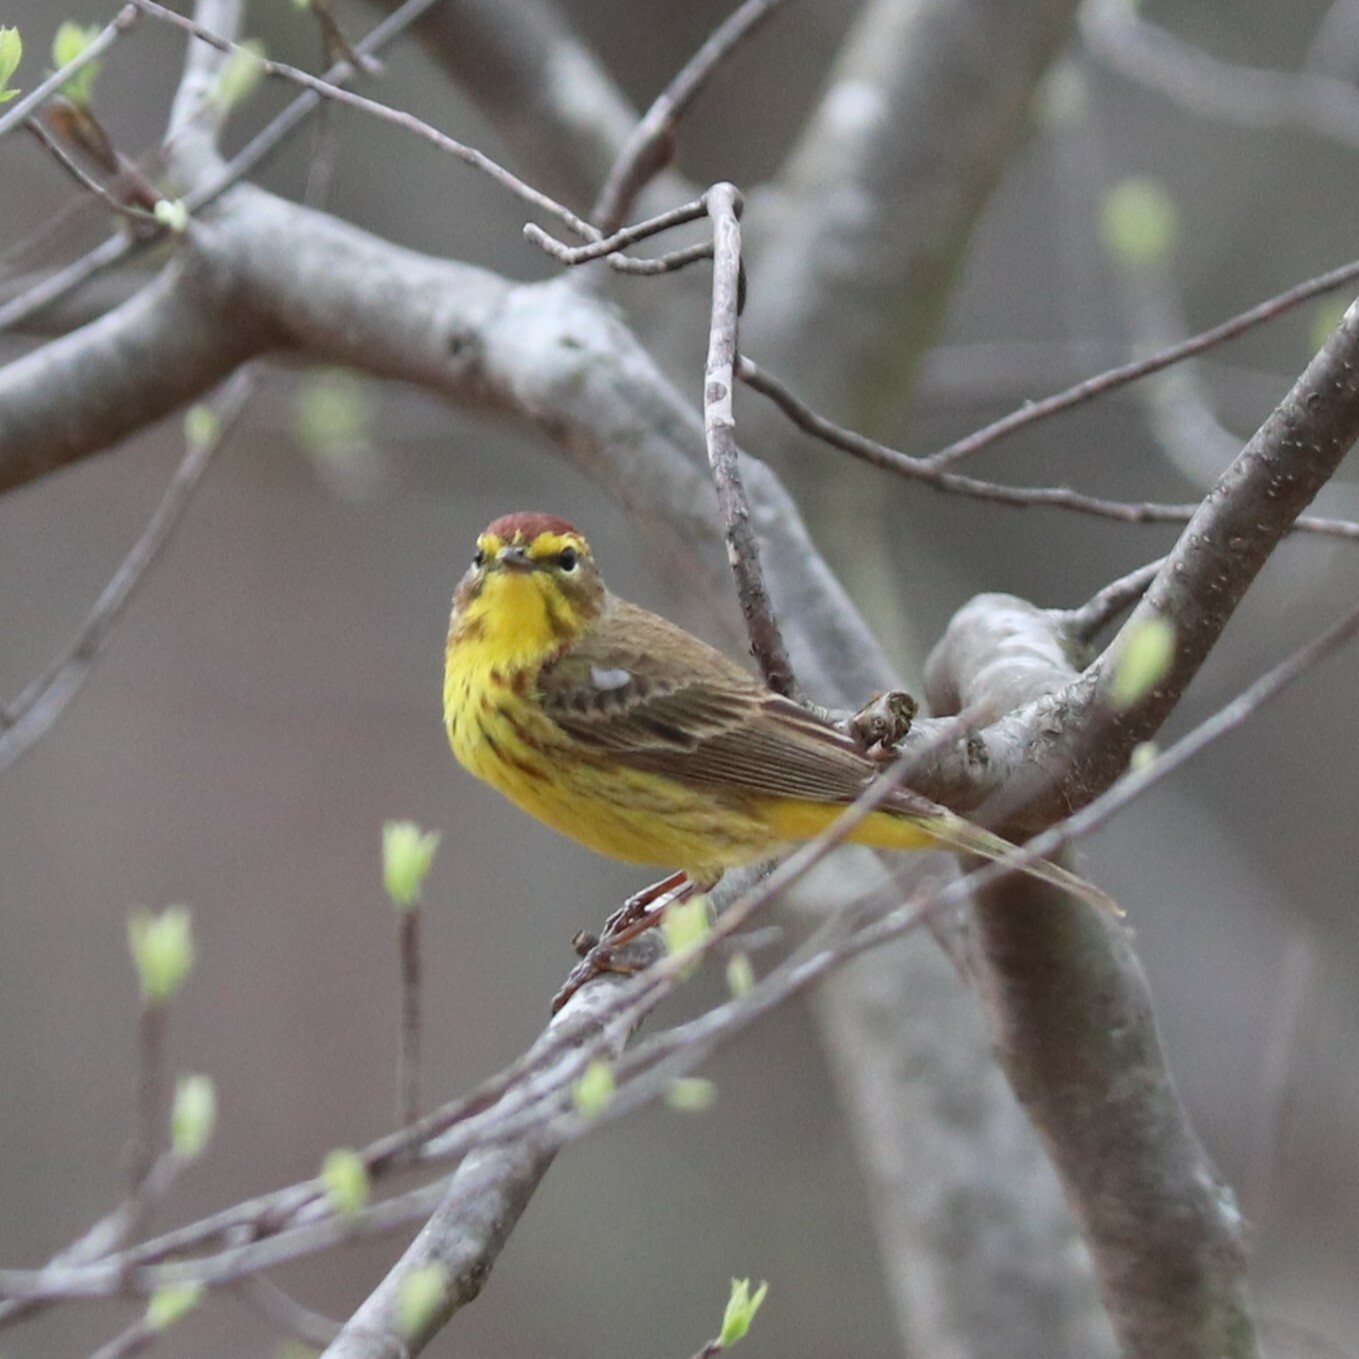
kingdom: Animalia
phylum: Chordata
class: Aves
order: Passeriformes
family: Parulidae
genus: Setophaga
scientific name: Setophaga palmarum
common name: Palm warbler
